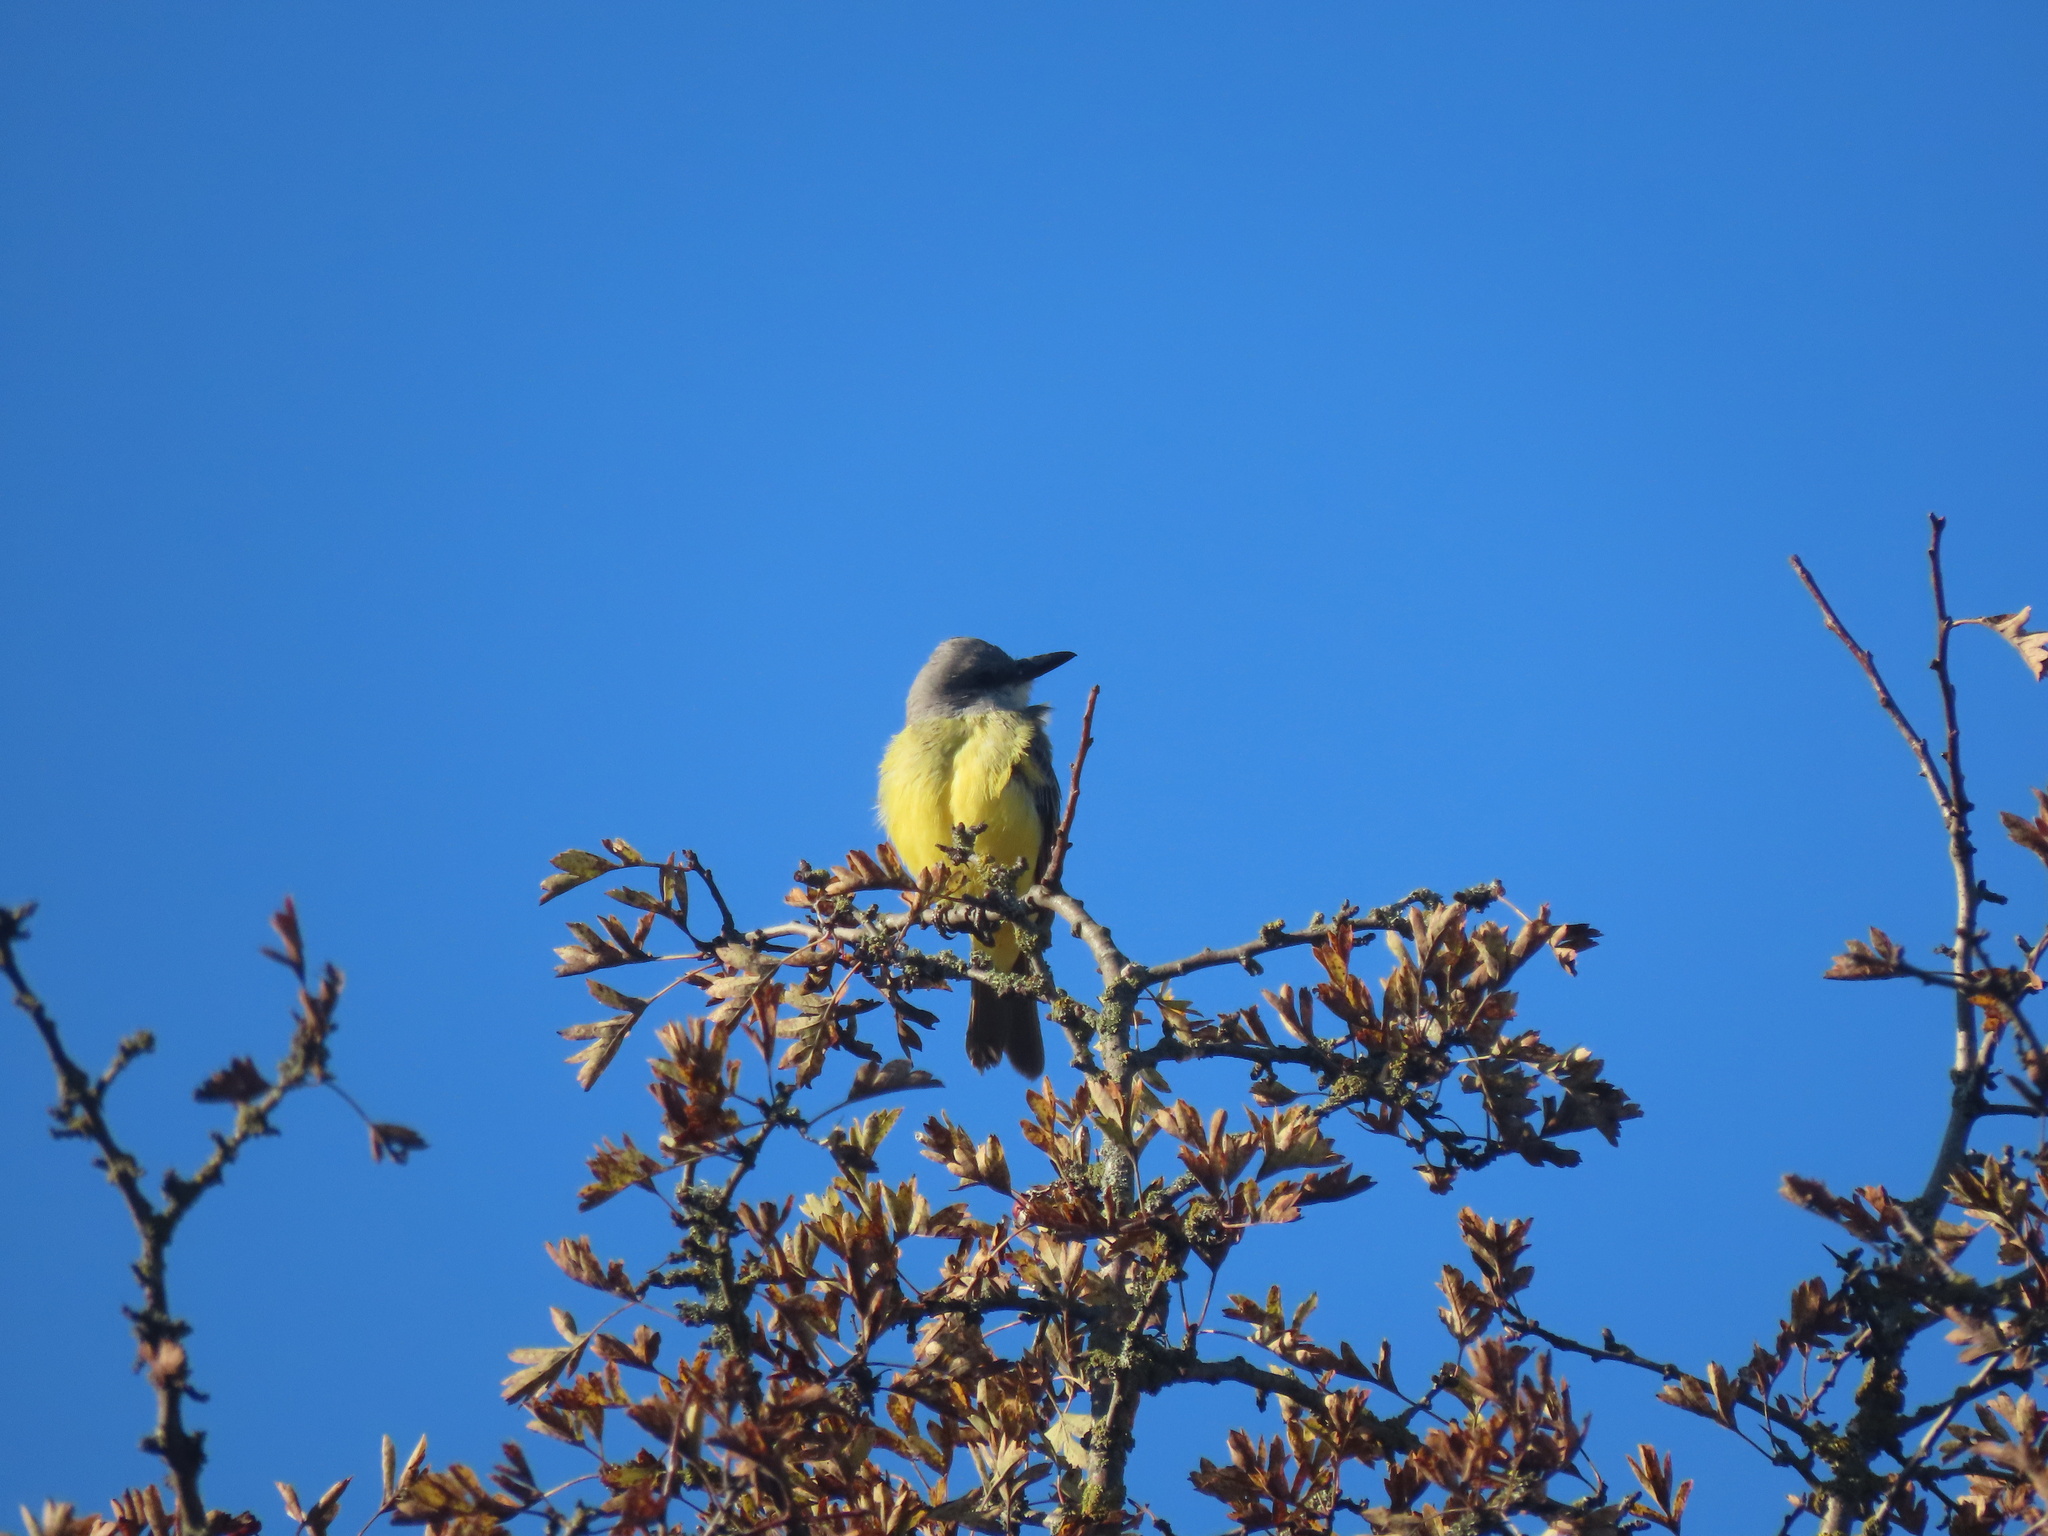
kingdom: Animalia
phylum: Chordata
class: Aves
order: Passeriformes
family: Tyrannidae
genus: Tyrannus
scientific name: Tyrannus melancholicus
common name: Tropical kingbird
